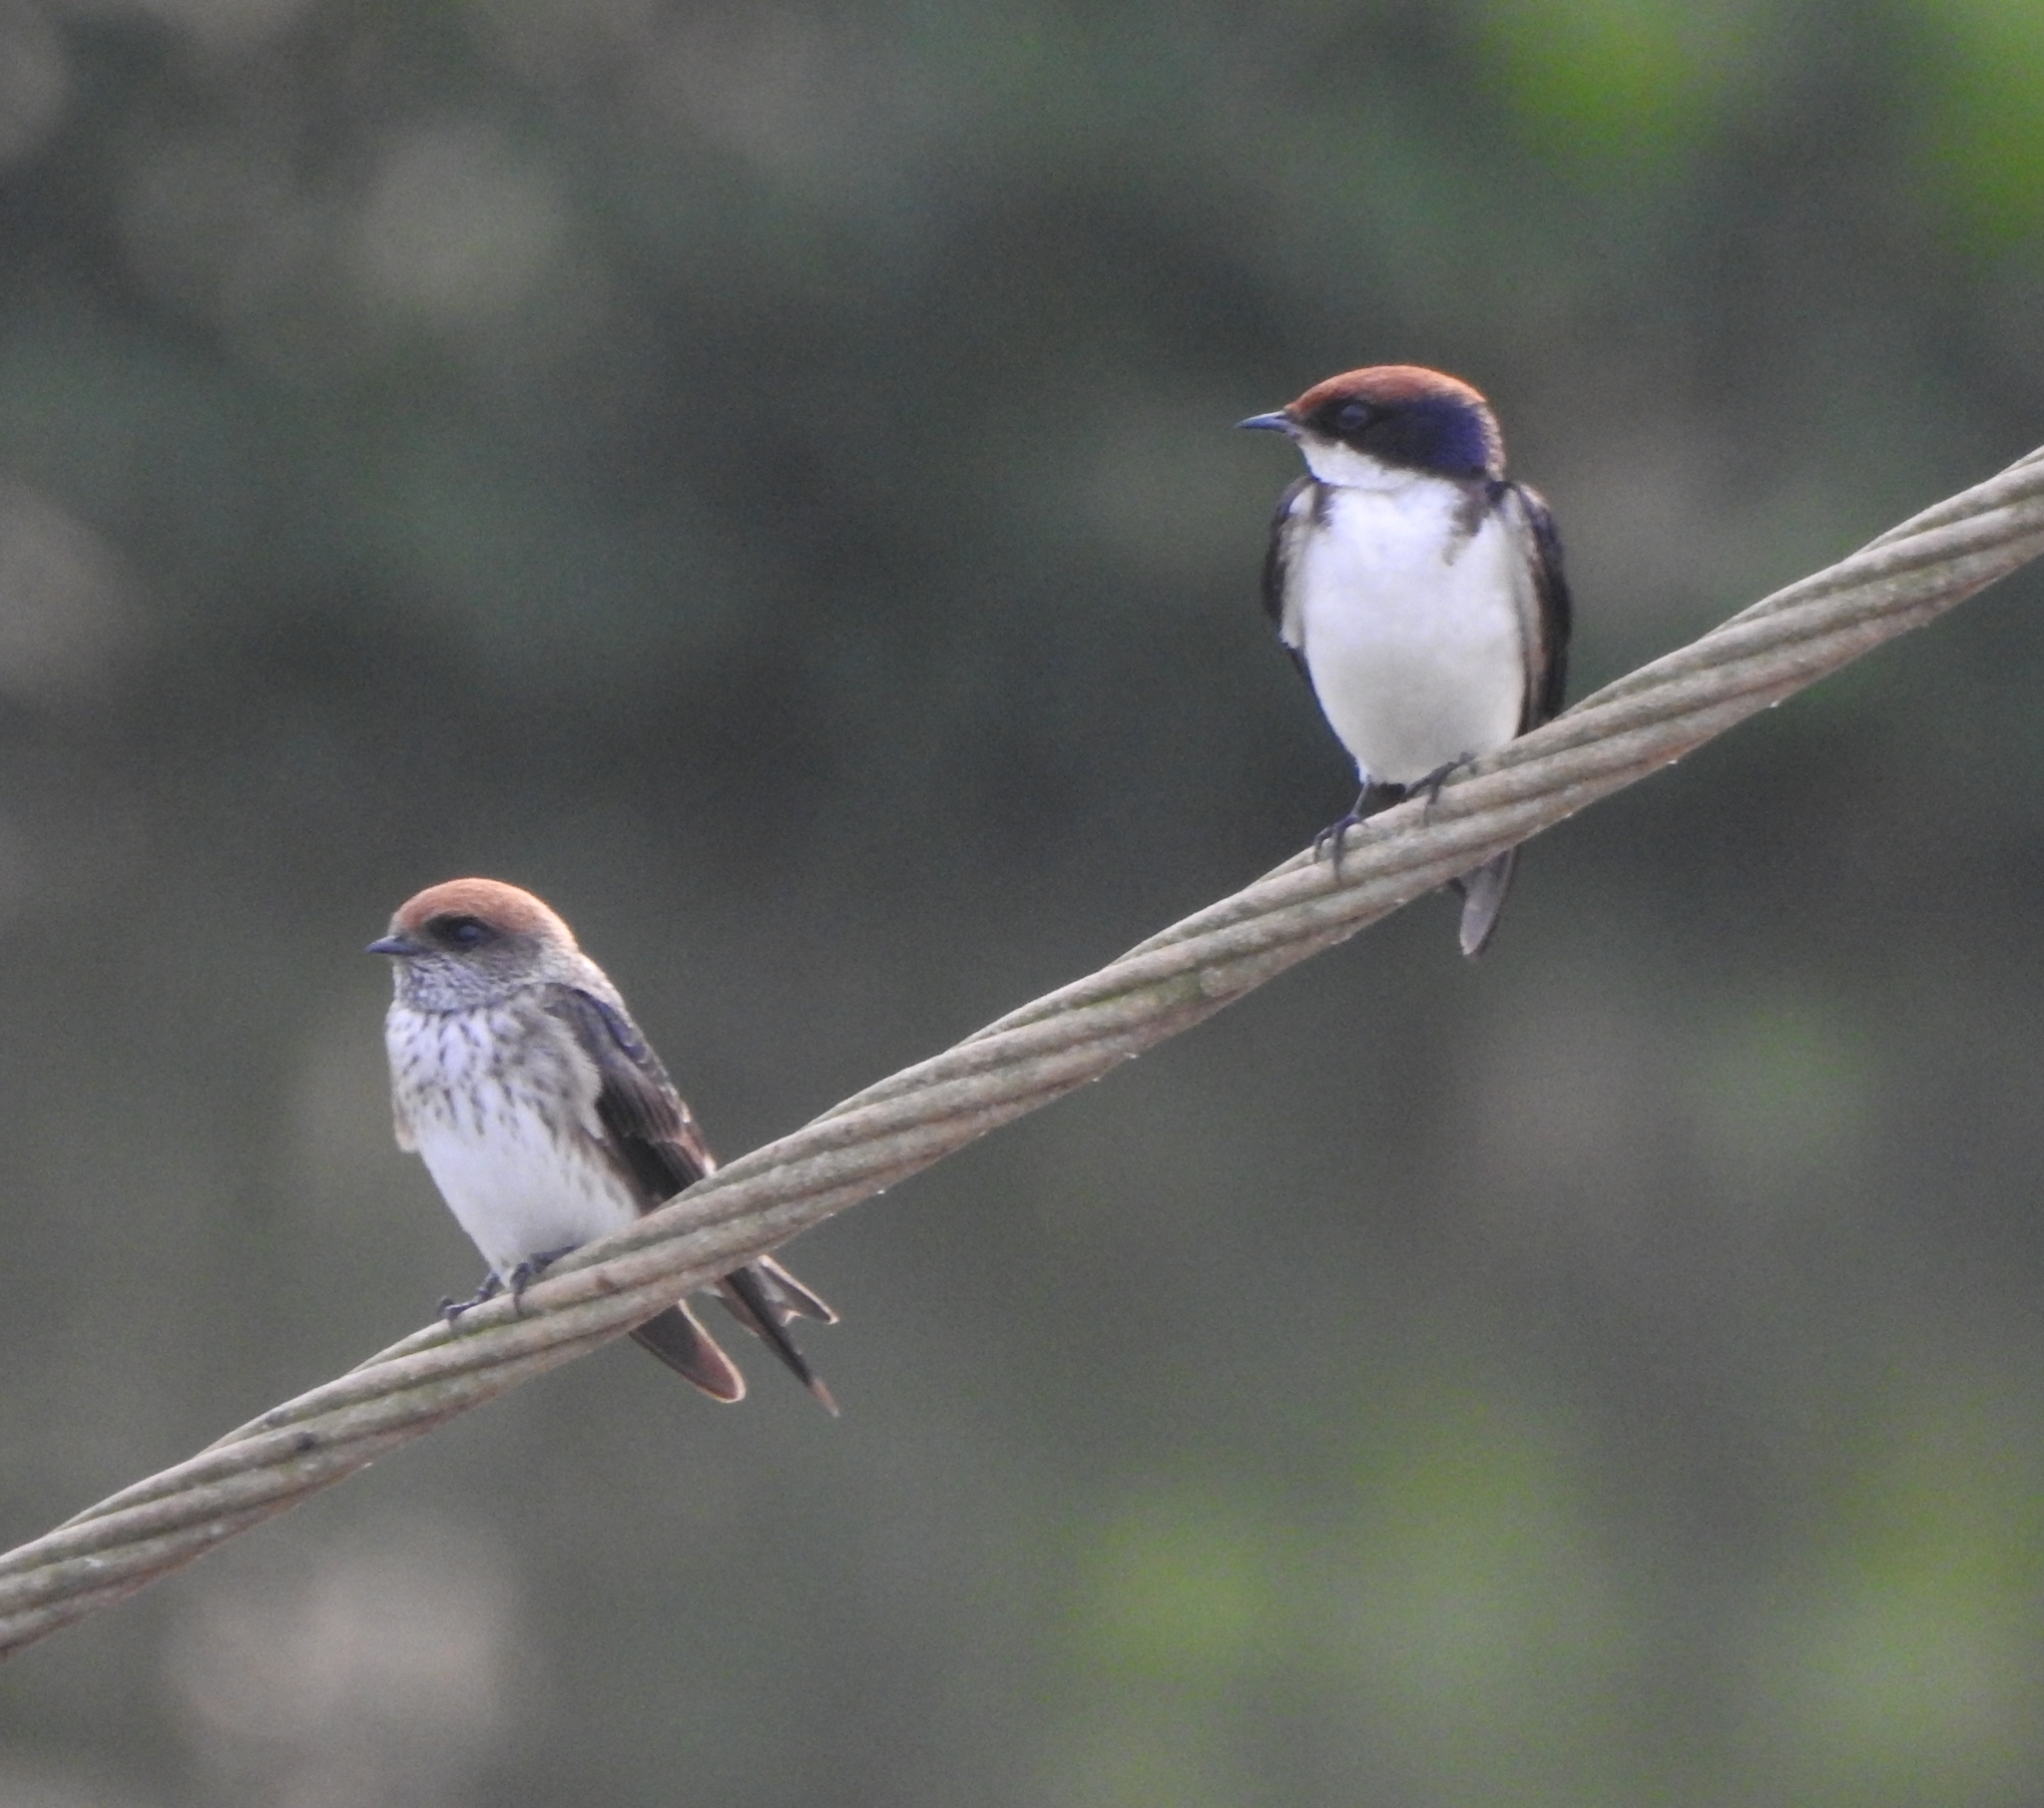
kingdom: Animalia
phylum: Chordata
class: Aves
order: Passeriformes
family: Hirundinidae
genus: Petrochelidon
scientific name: Petrochelidon fluvicola
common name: Streak-throated swallow
